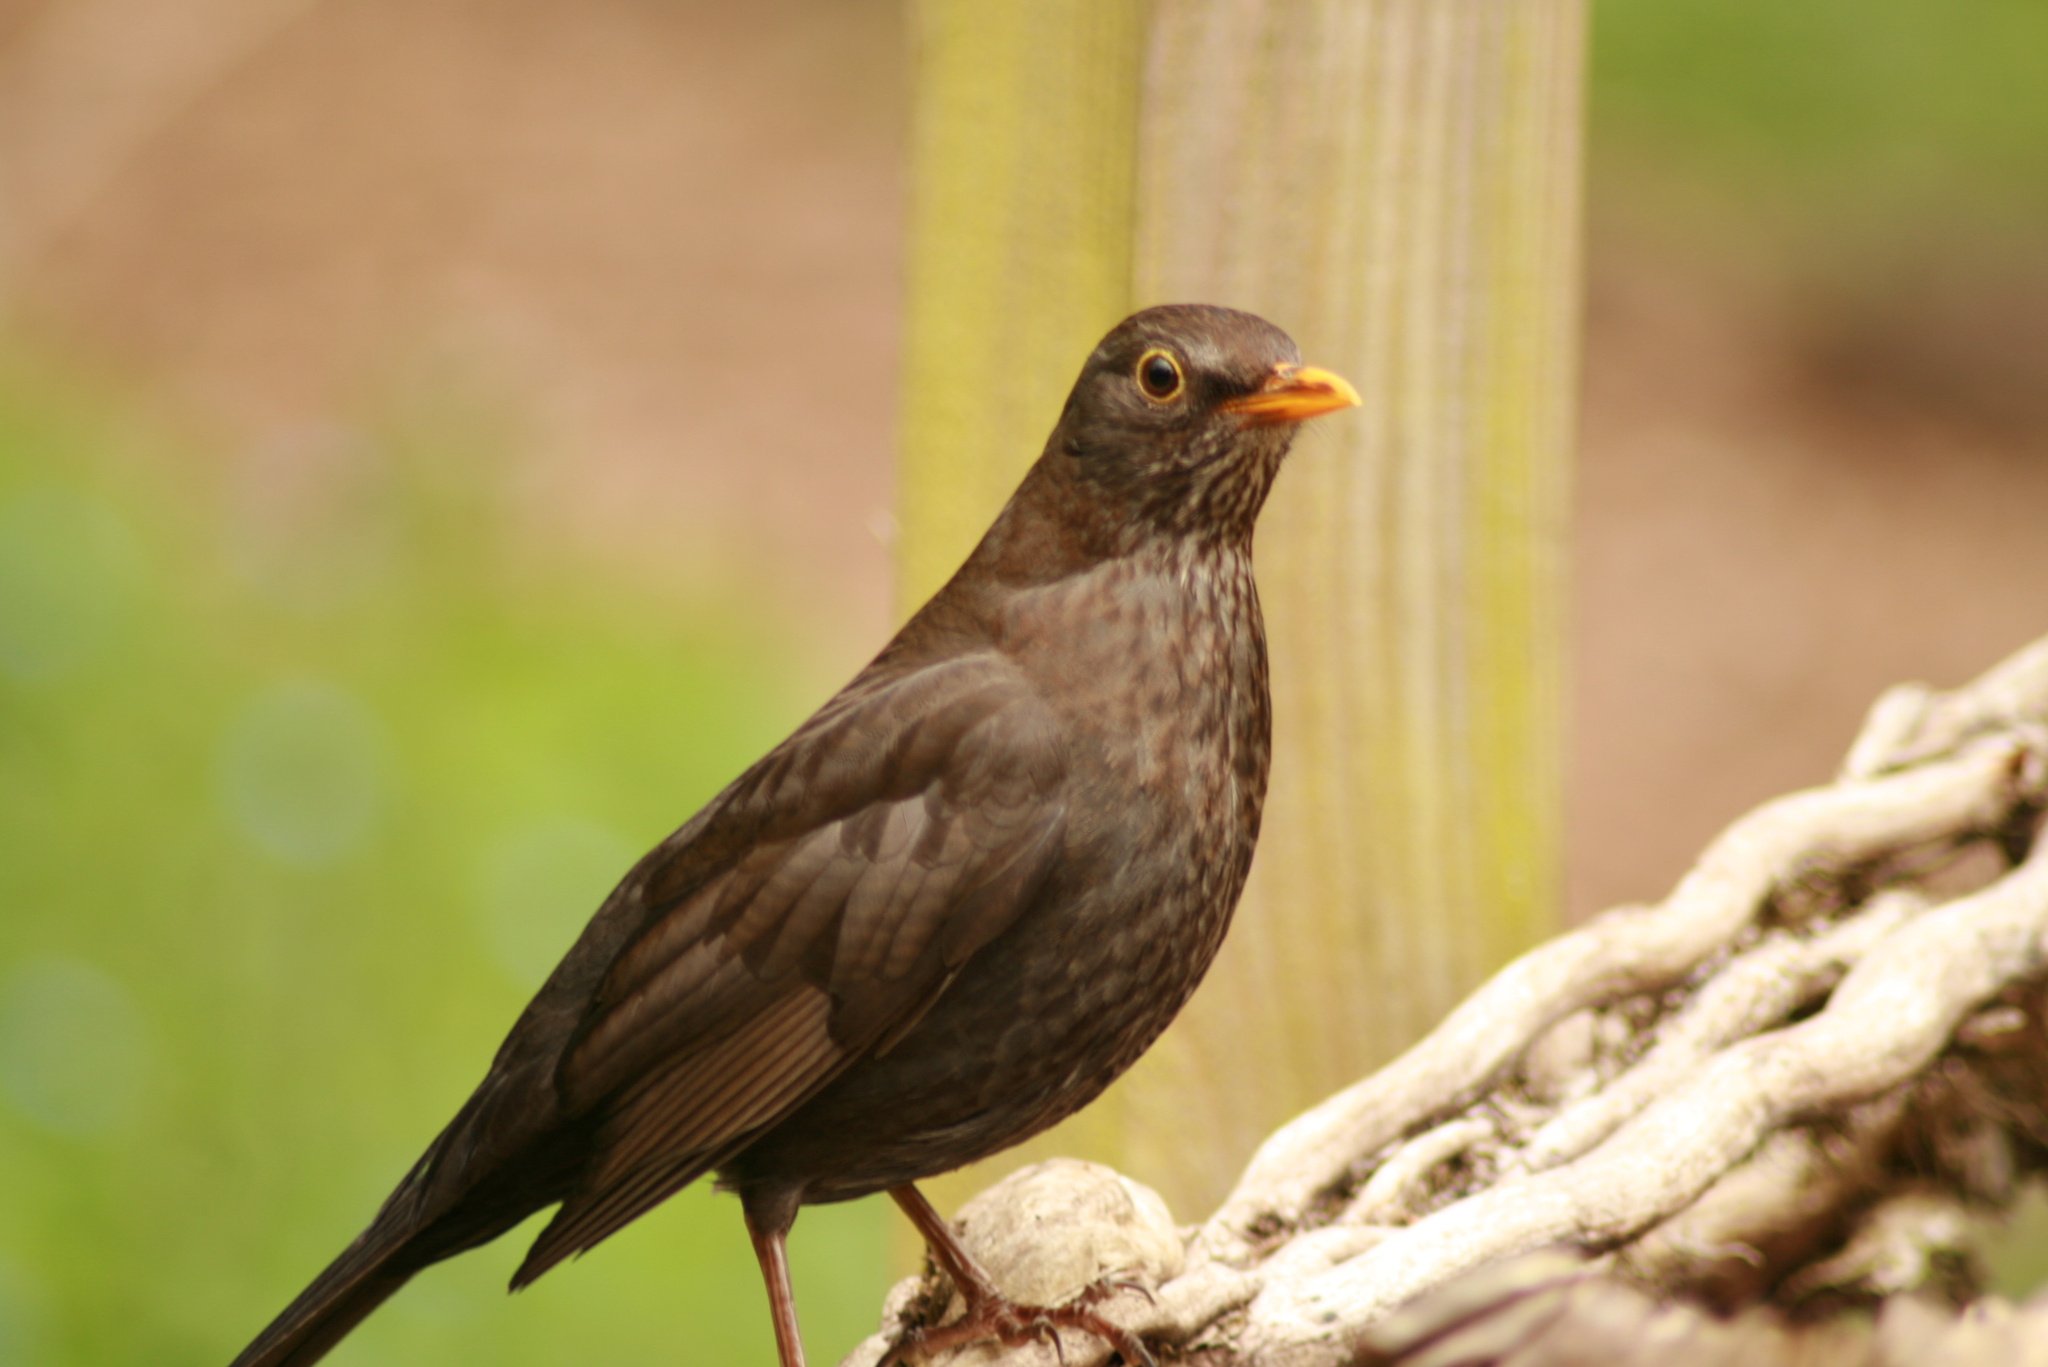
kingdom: Animalia
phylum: Chordata
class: Aves
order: Passeriformes
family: Turdidae
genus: Turdus
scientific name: Turdus merula
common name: Common blackbird
